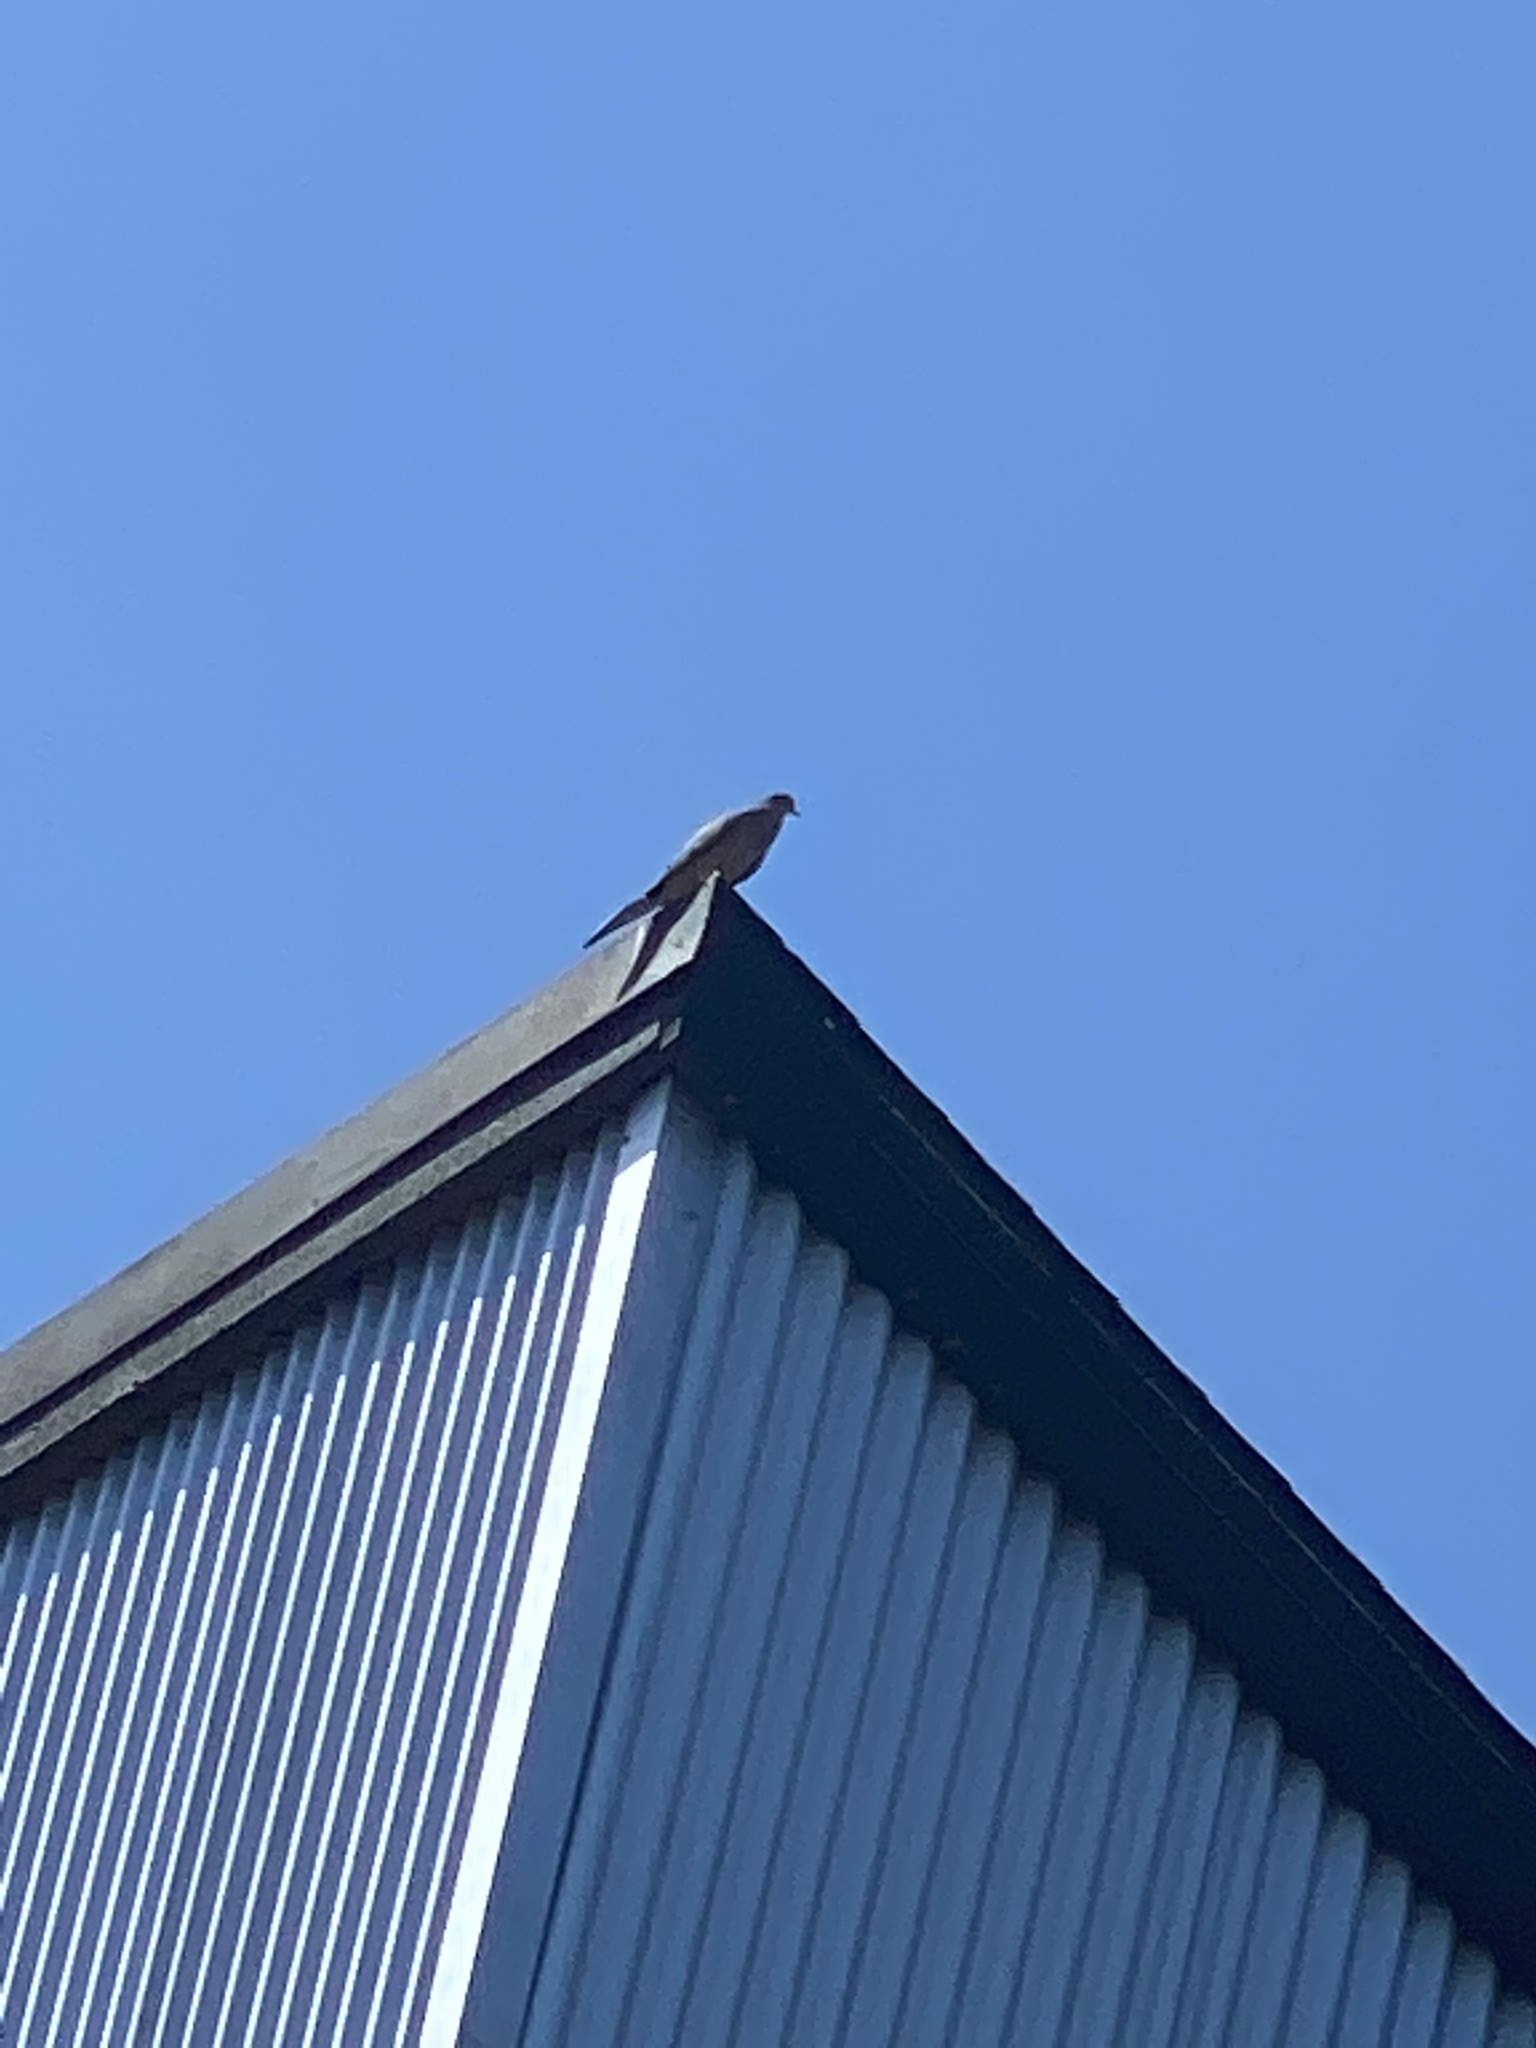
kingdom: Animalia
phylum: Chordata
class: Aves
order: Columbiformes
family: Columbidae
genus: Zenaida
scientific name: Zenaida macroura
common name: Mourning dove
